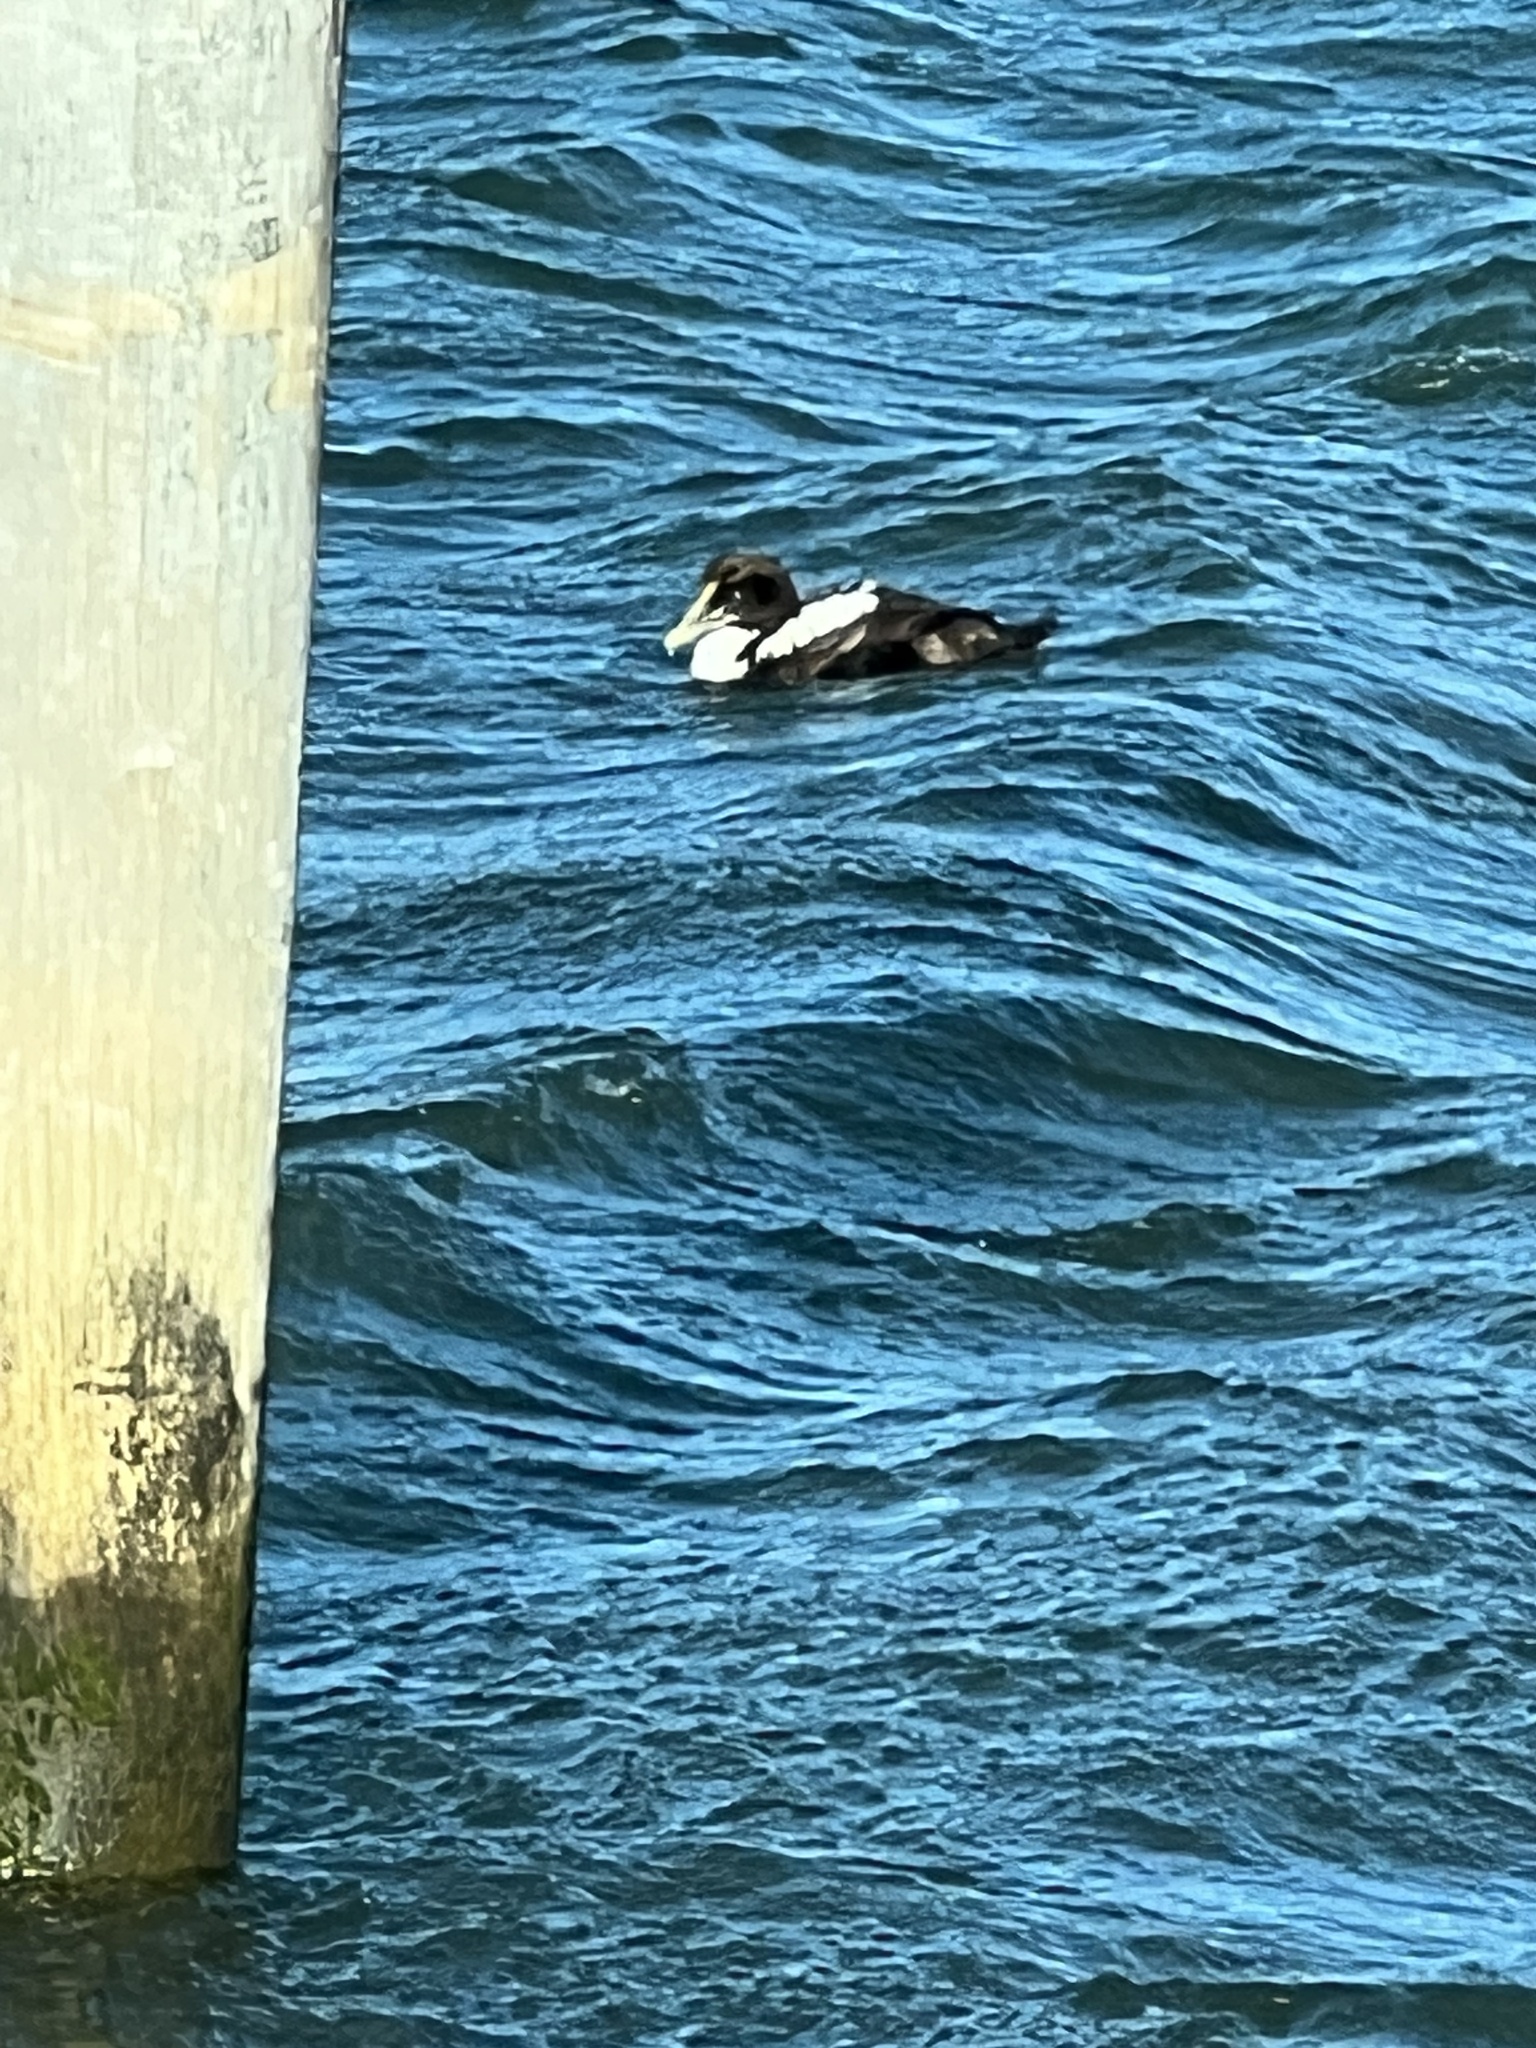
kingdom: Animalia
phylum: Chordata
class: Aves
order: Anseriformes
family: Anatidae
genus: Somateria
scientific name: Somateria mollissima
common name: Common eider
